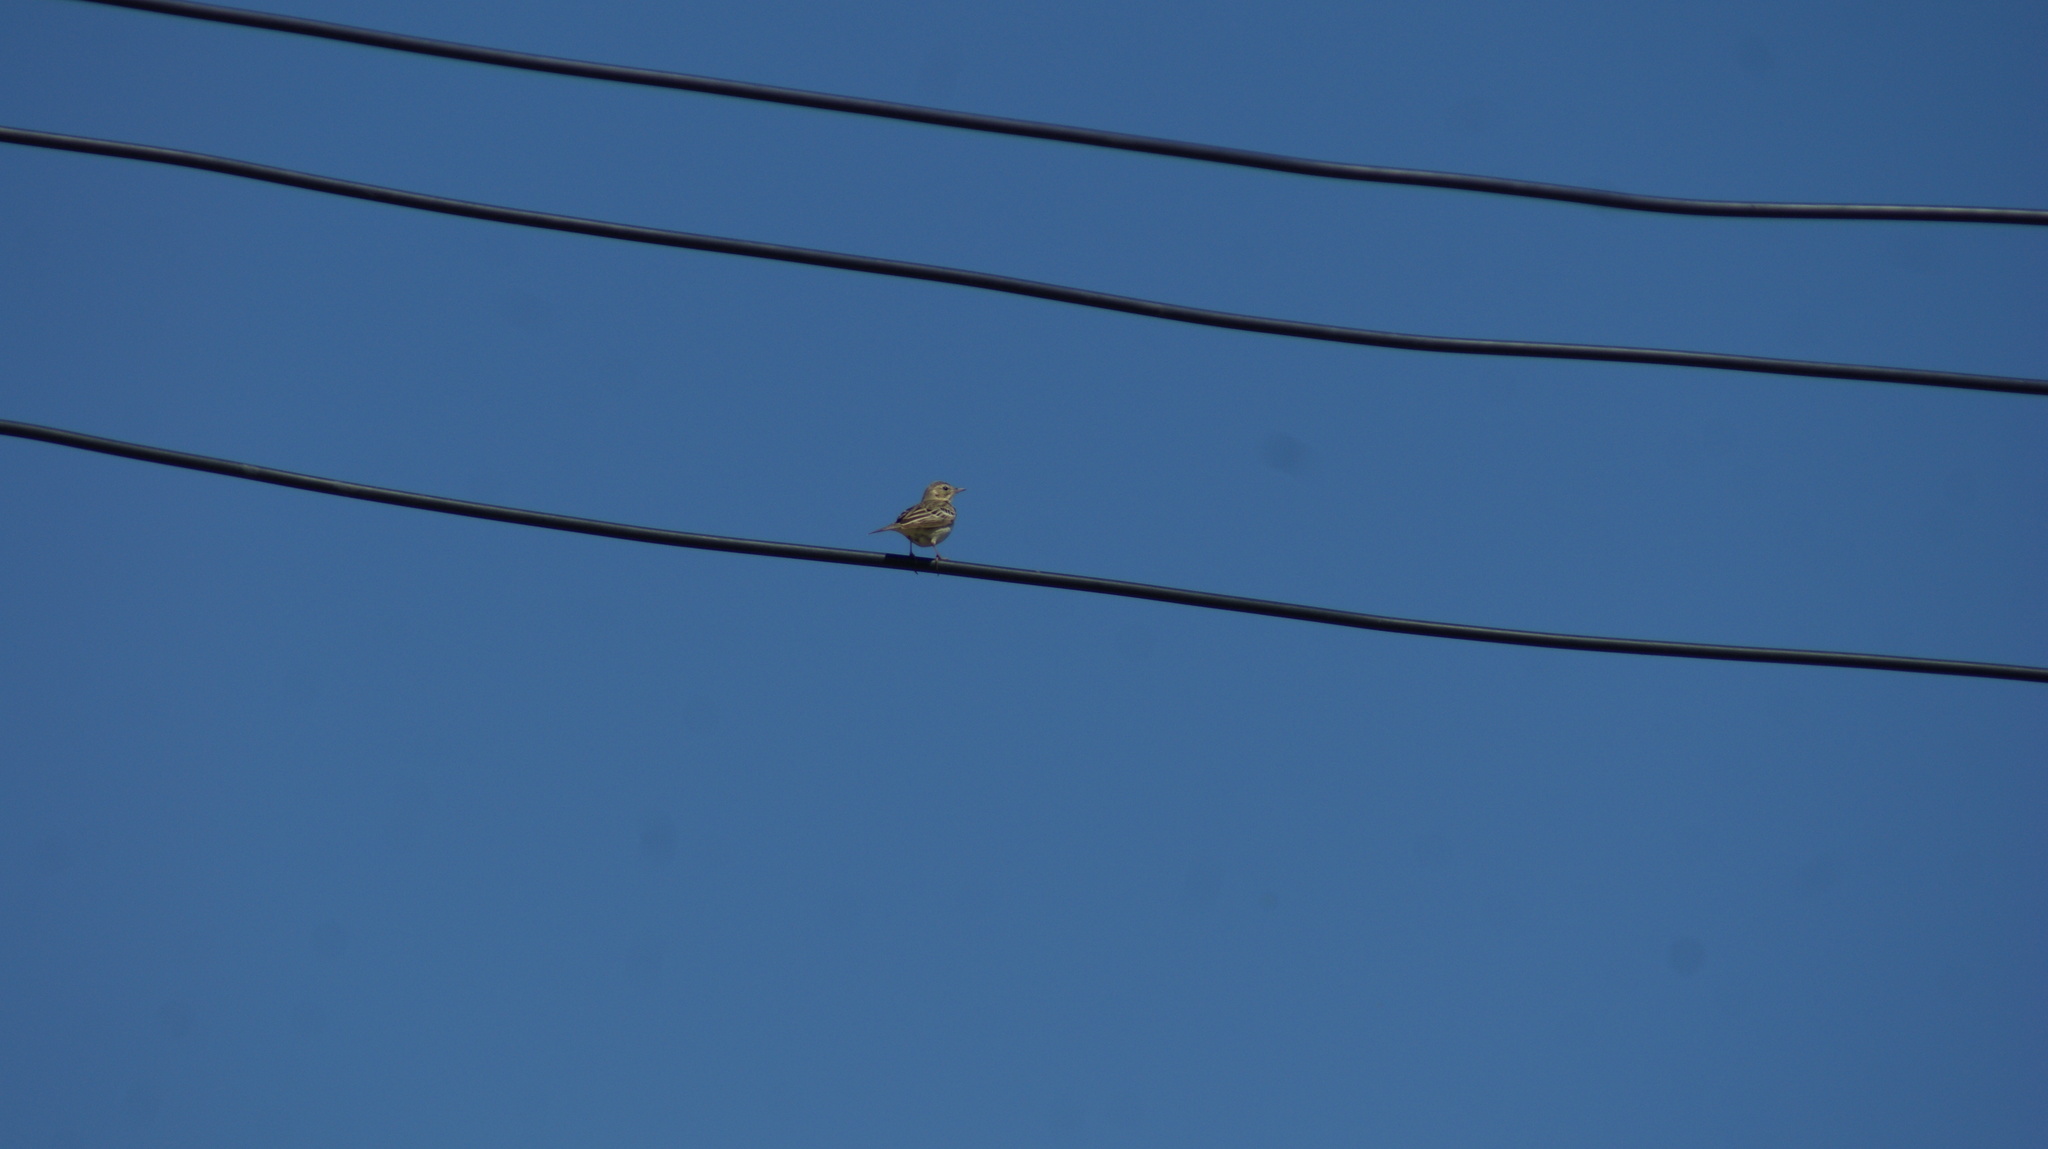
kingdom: Animalia
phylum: Chordata
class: Aves
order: Passeriformes
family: Motacillidae
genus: Anthus
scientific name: Anthus trivialis
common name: Tree pipit
